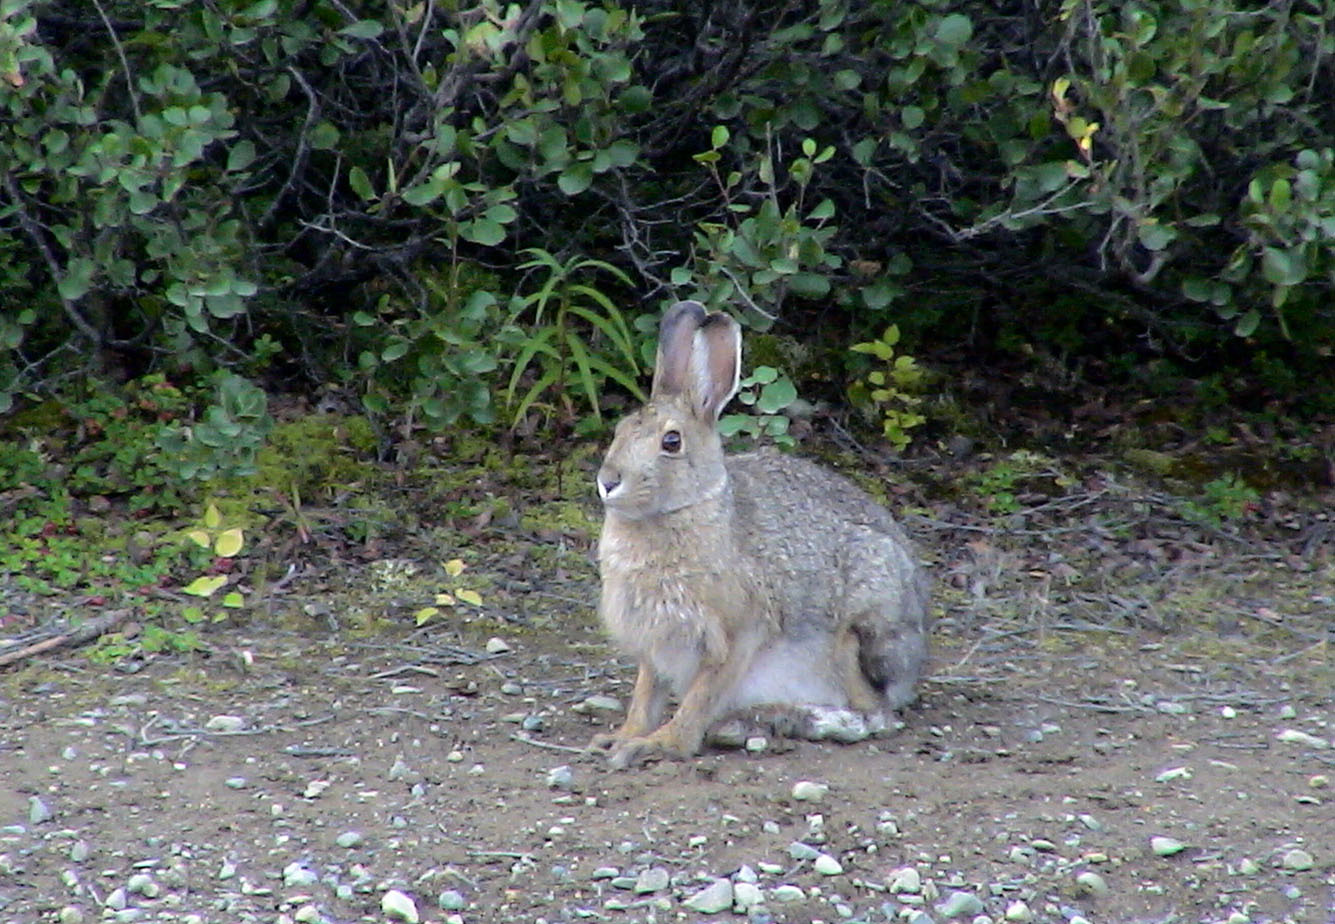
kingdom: Animalia
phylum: Chordata
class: Mammalia
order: Lagomorpha
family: Leporidae
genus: Lepus
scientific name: Lepus americanus
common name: Snowshoe hare
